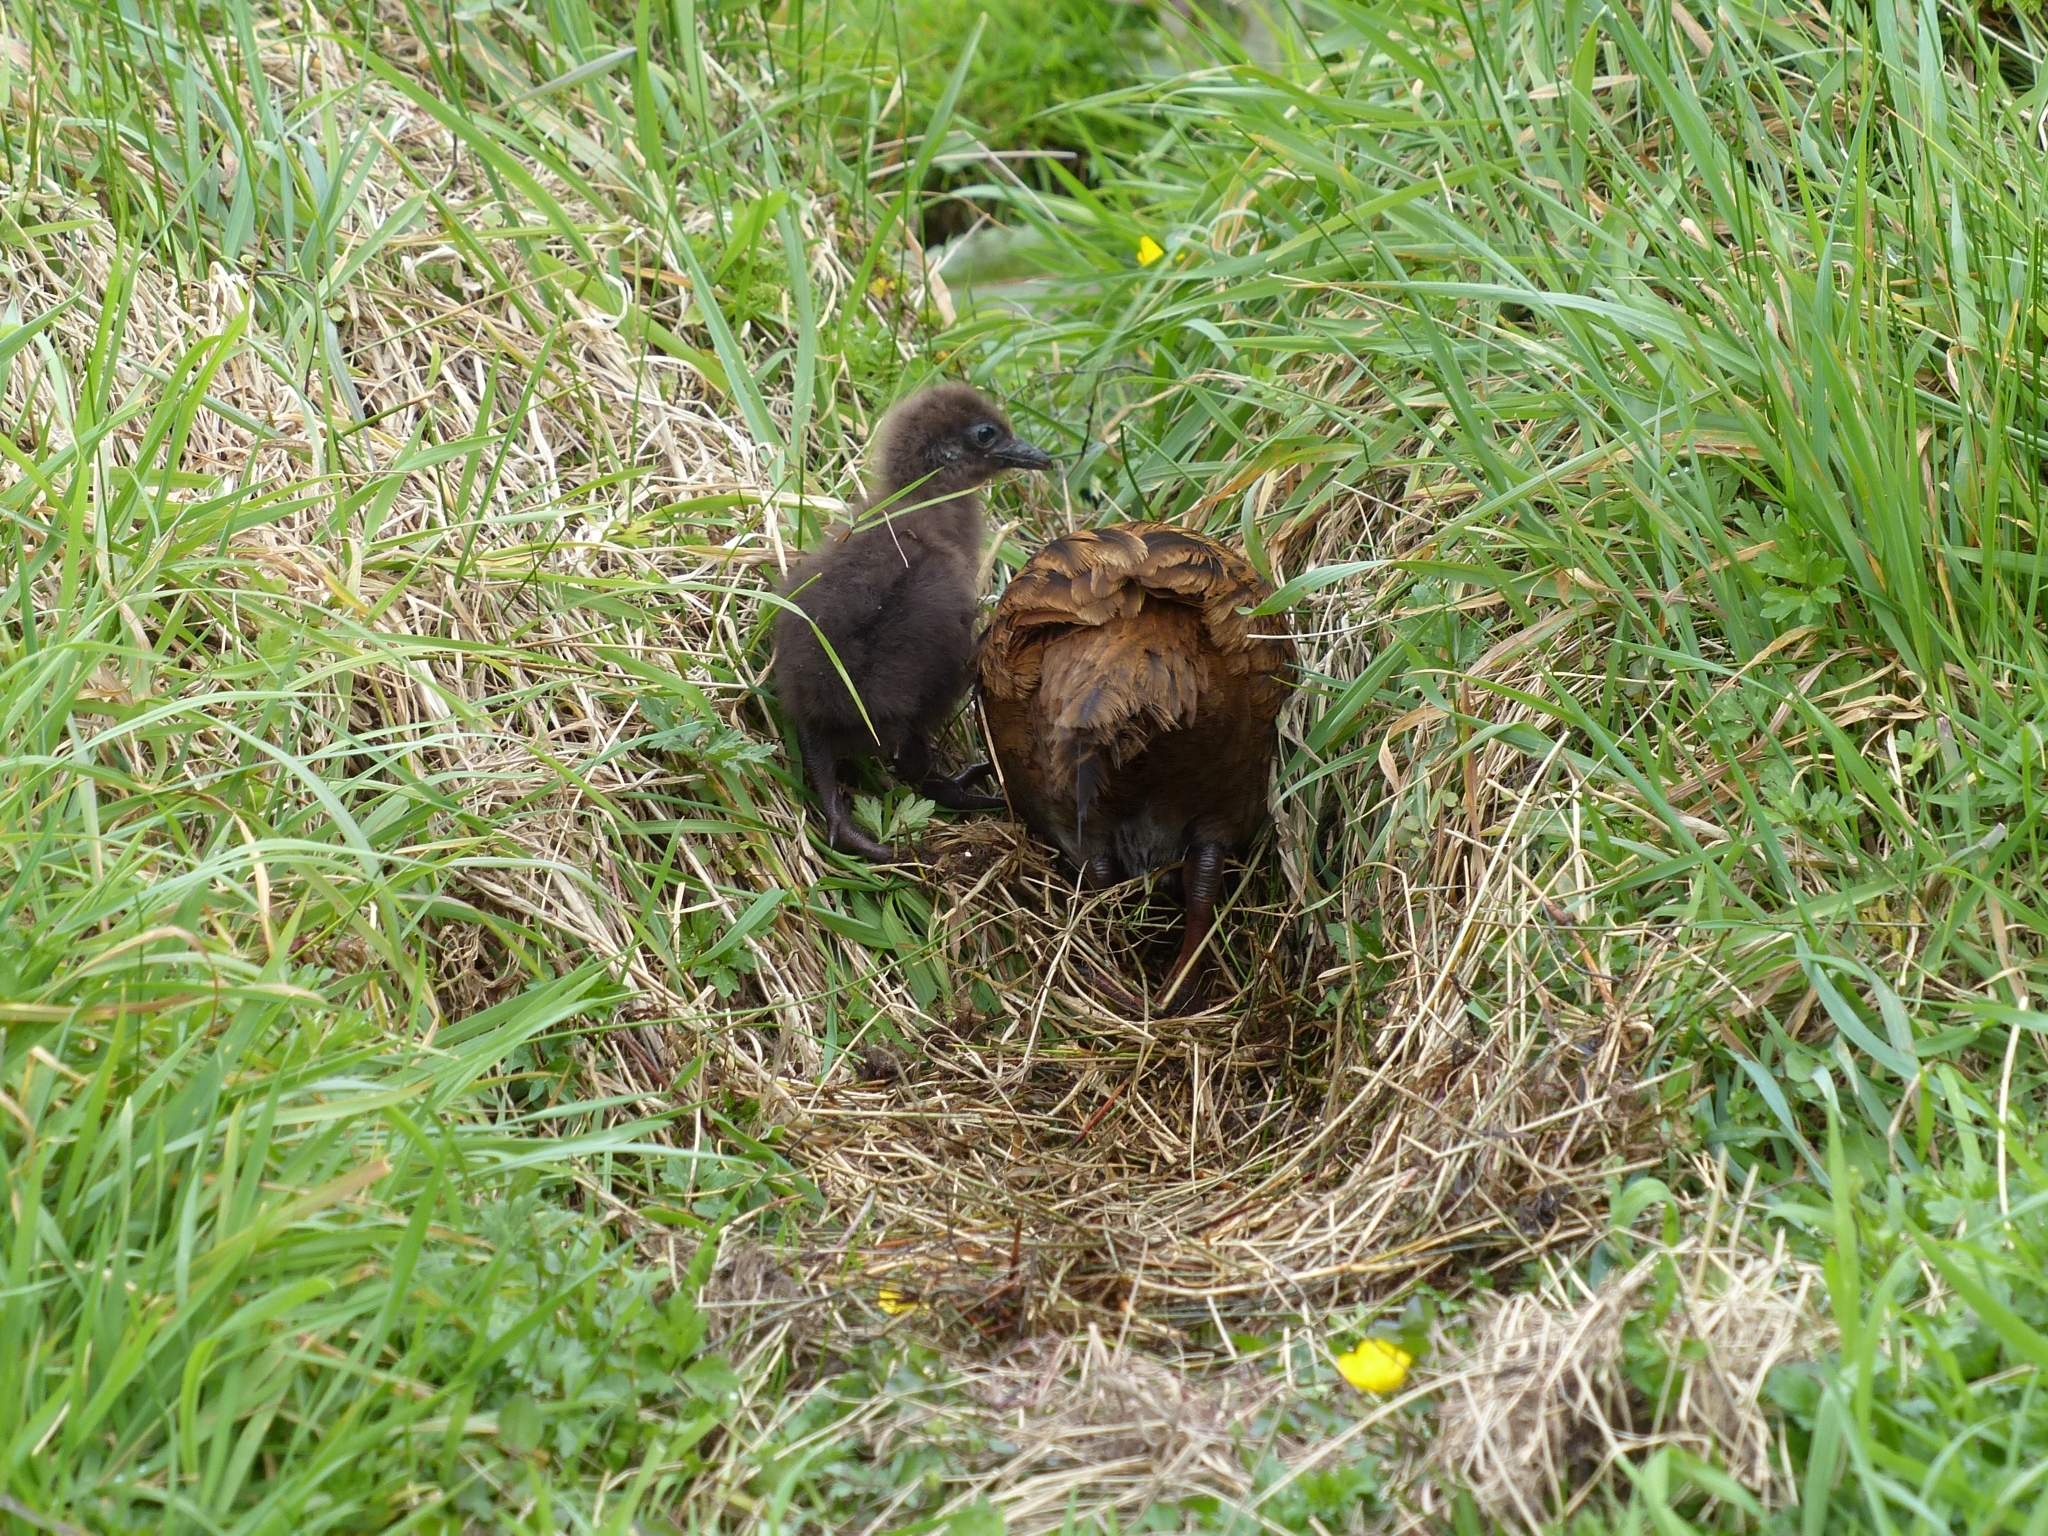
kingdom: Animalia
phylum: Chordata
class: Aves
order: Gruiformes
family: Rallidae
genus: Gallirallus
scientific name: Gallirallus
